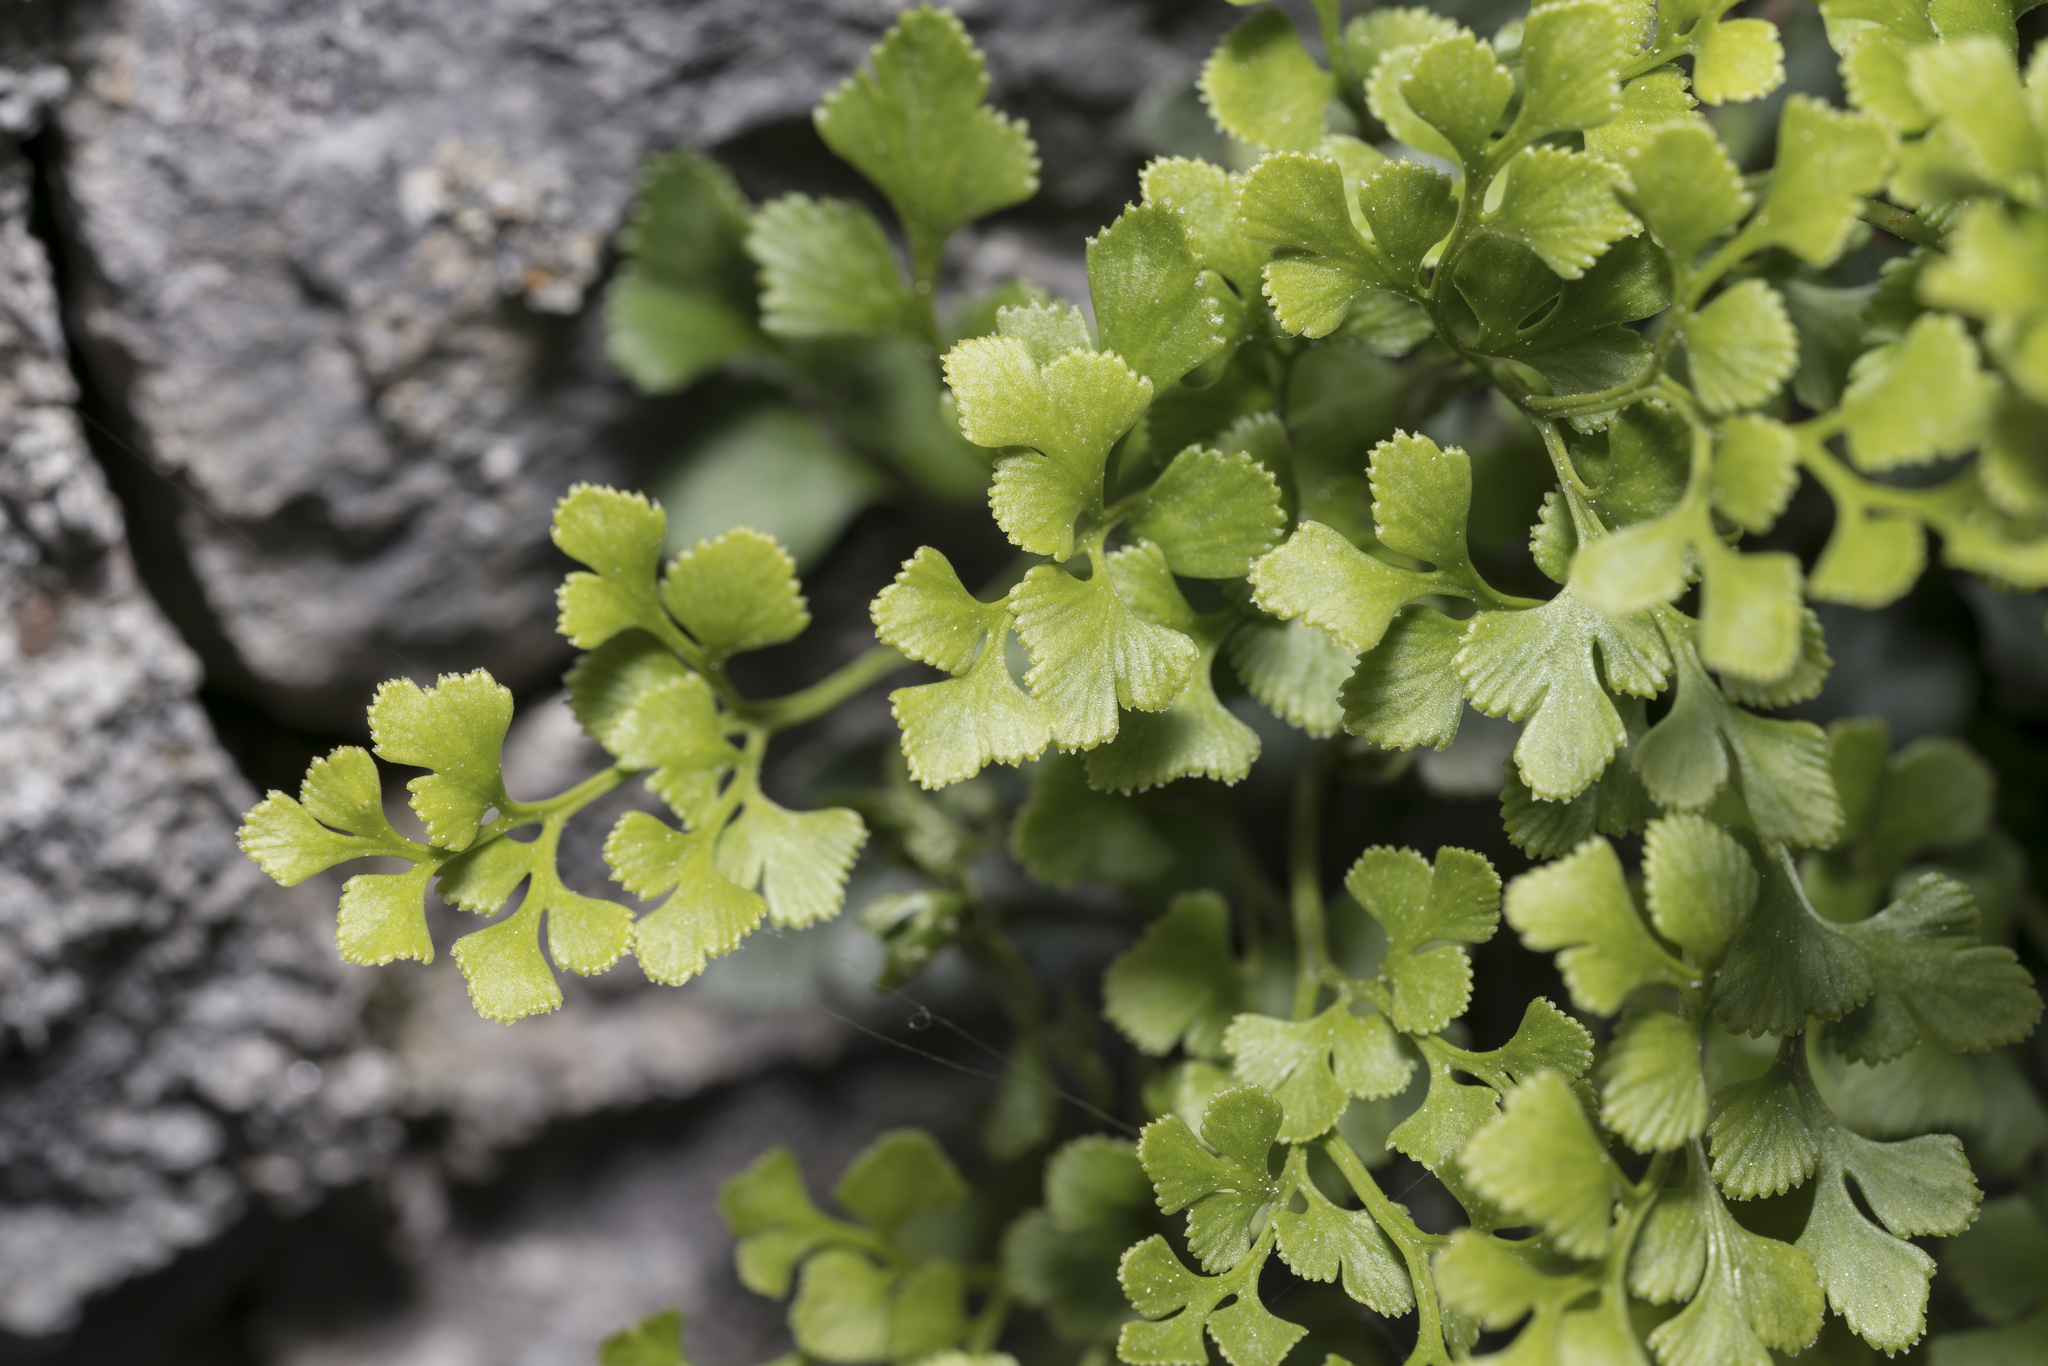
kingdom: Plantae
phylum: Tracheophyta
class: Polypodiopsida
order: Polypodiales
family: Aspleniaceae
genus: Asplenium
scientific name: Asplenium ruta-muraria
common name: Wall-rue
